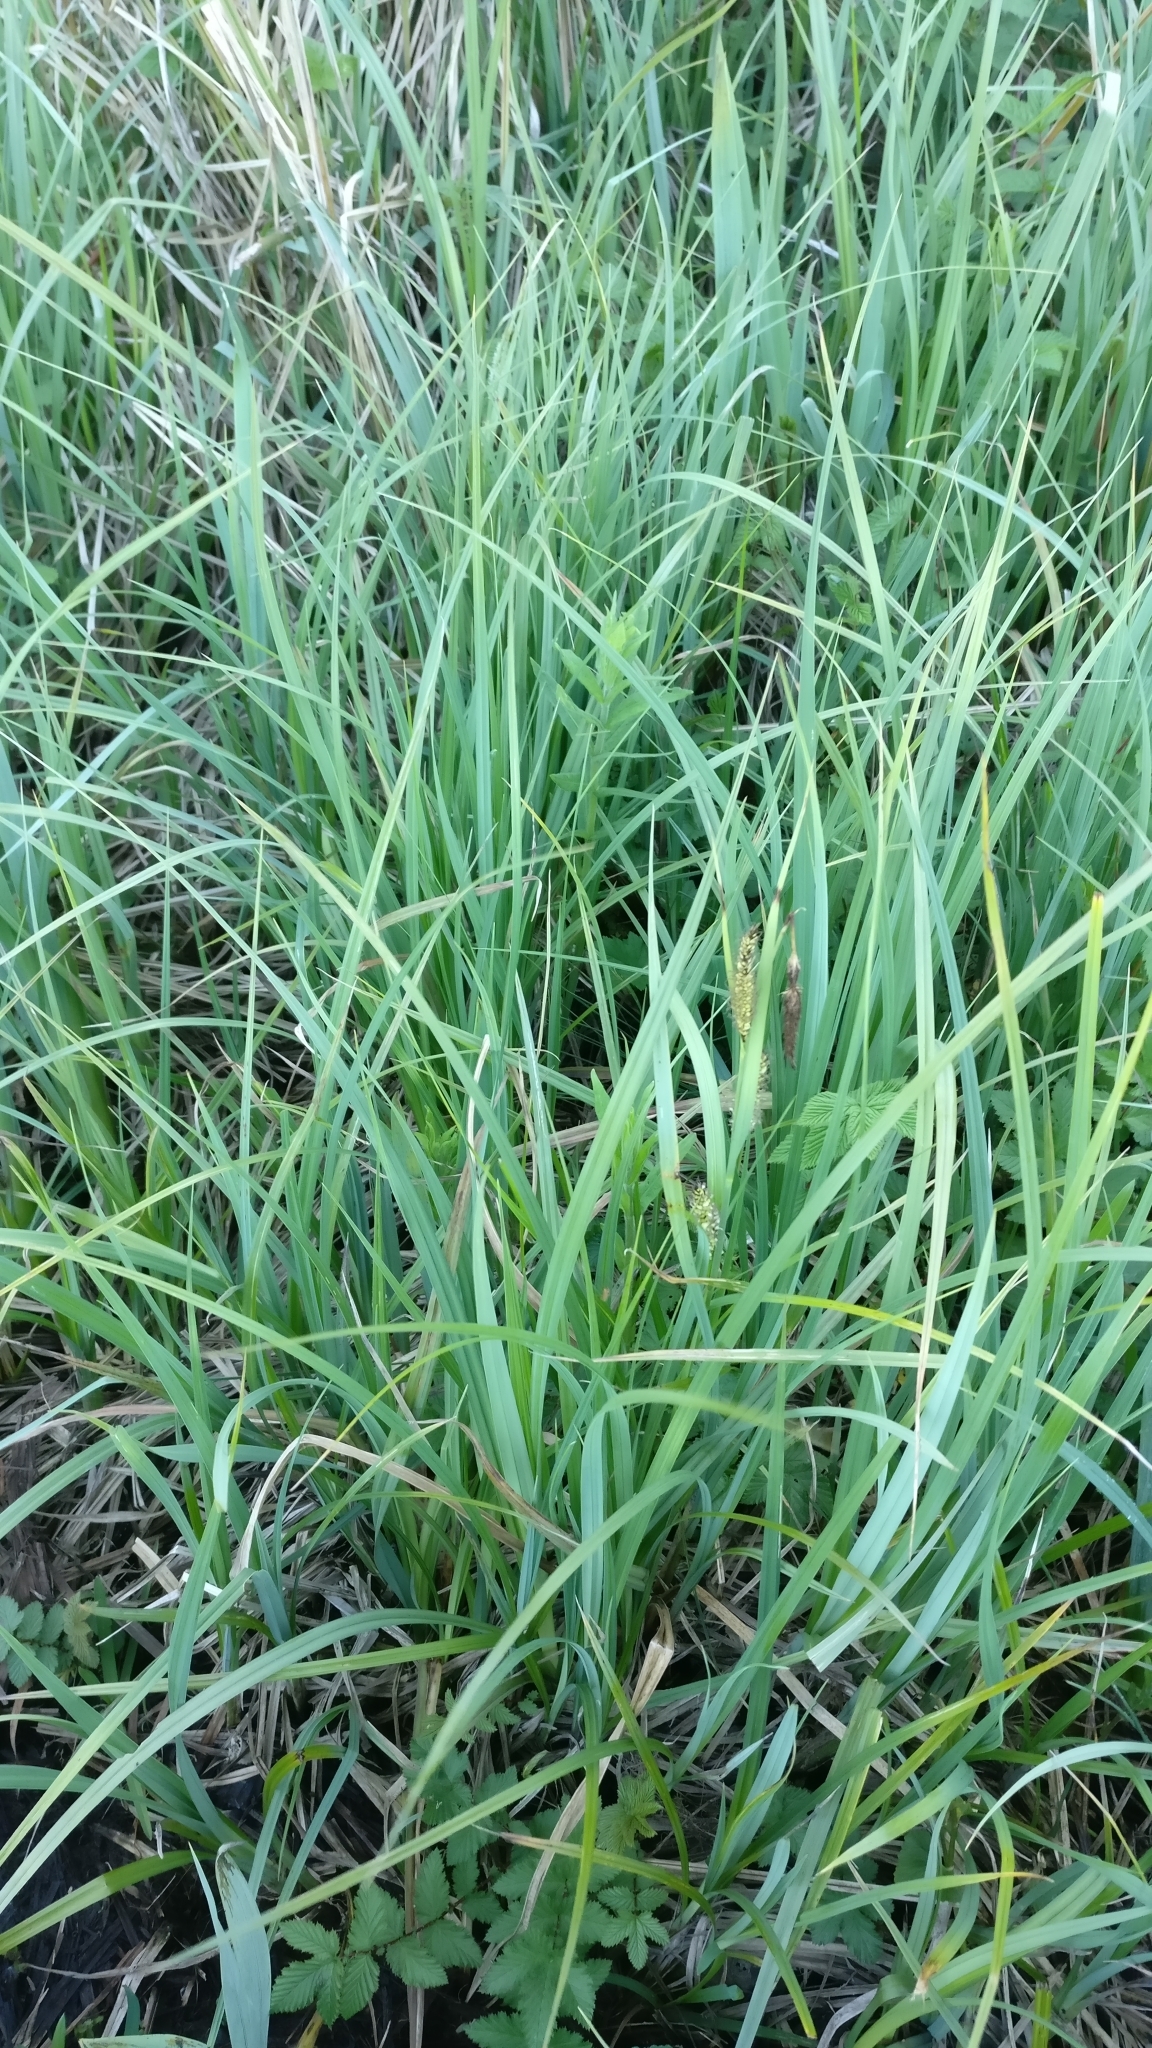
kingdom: Plantae
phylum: Tracheophyta
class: Liliopsida
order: Poales
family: Cyperaceae
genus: Carex
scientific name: Carex flacca
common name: Glaucous sedge
